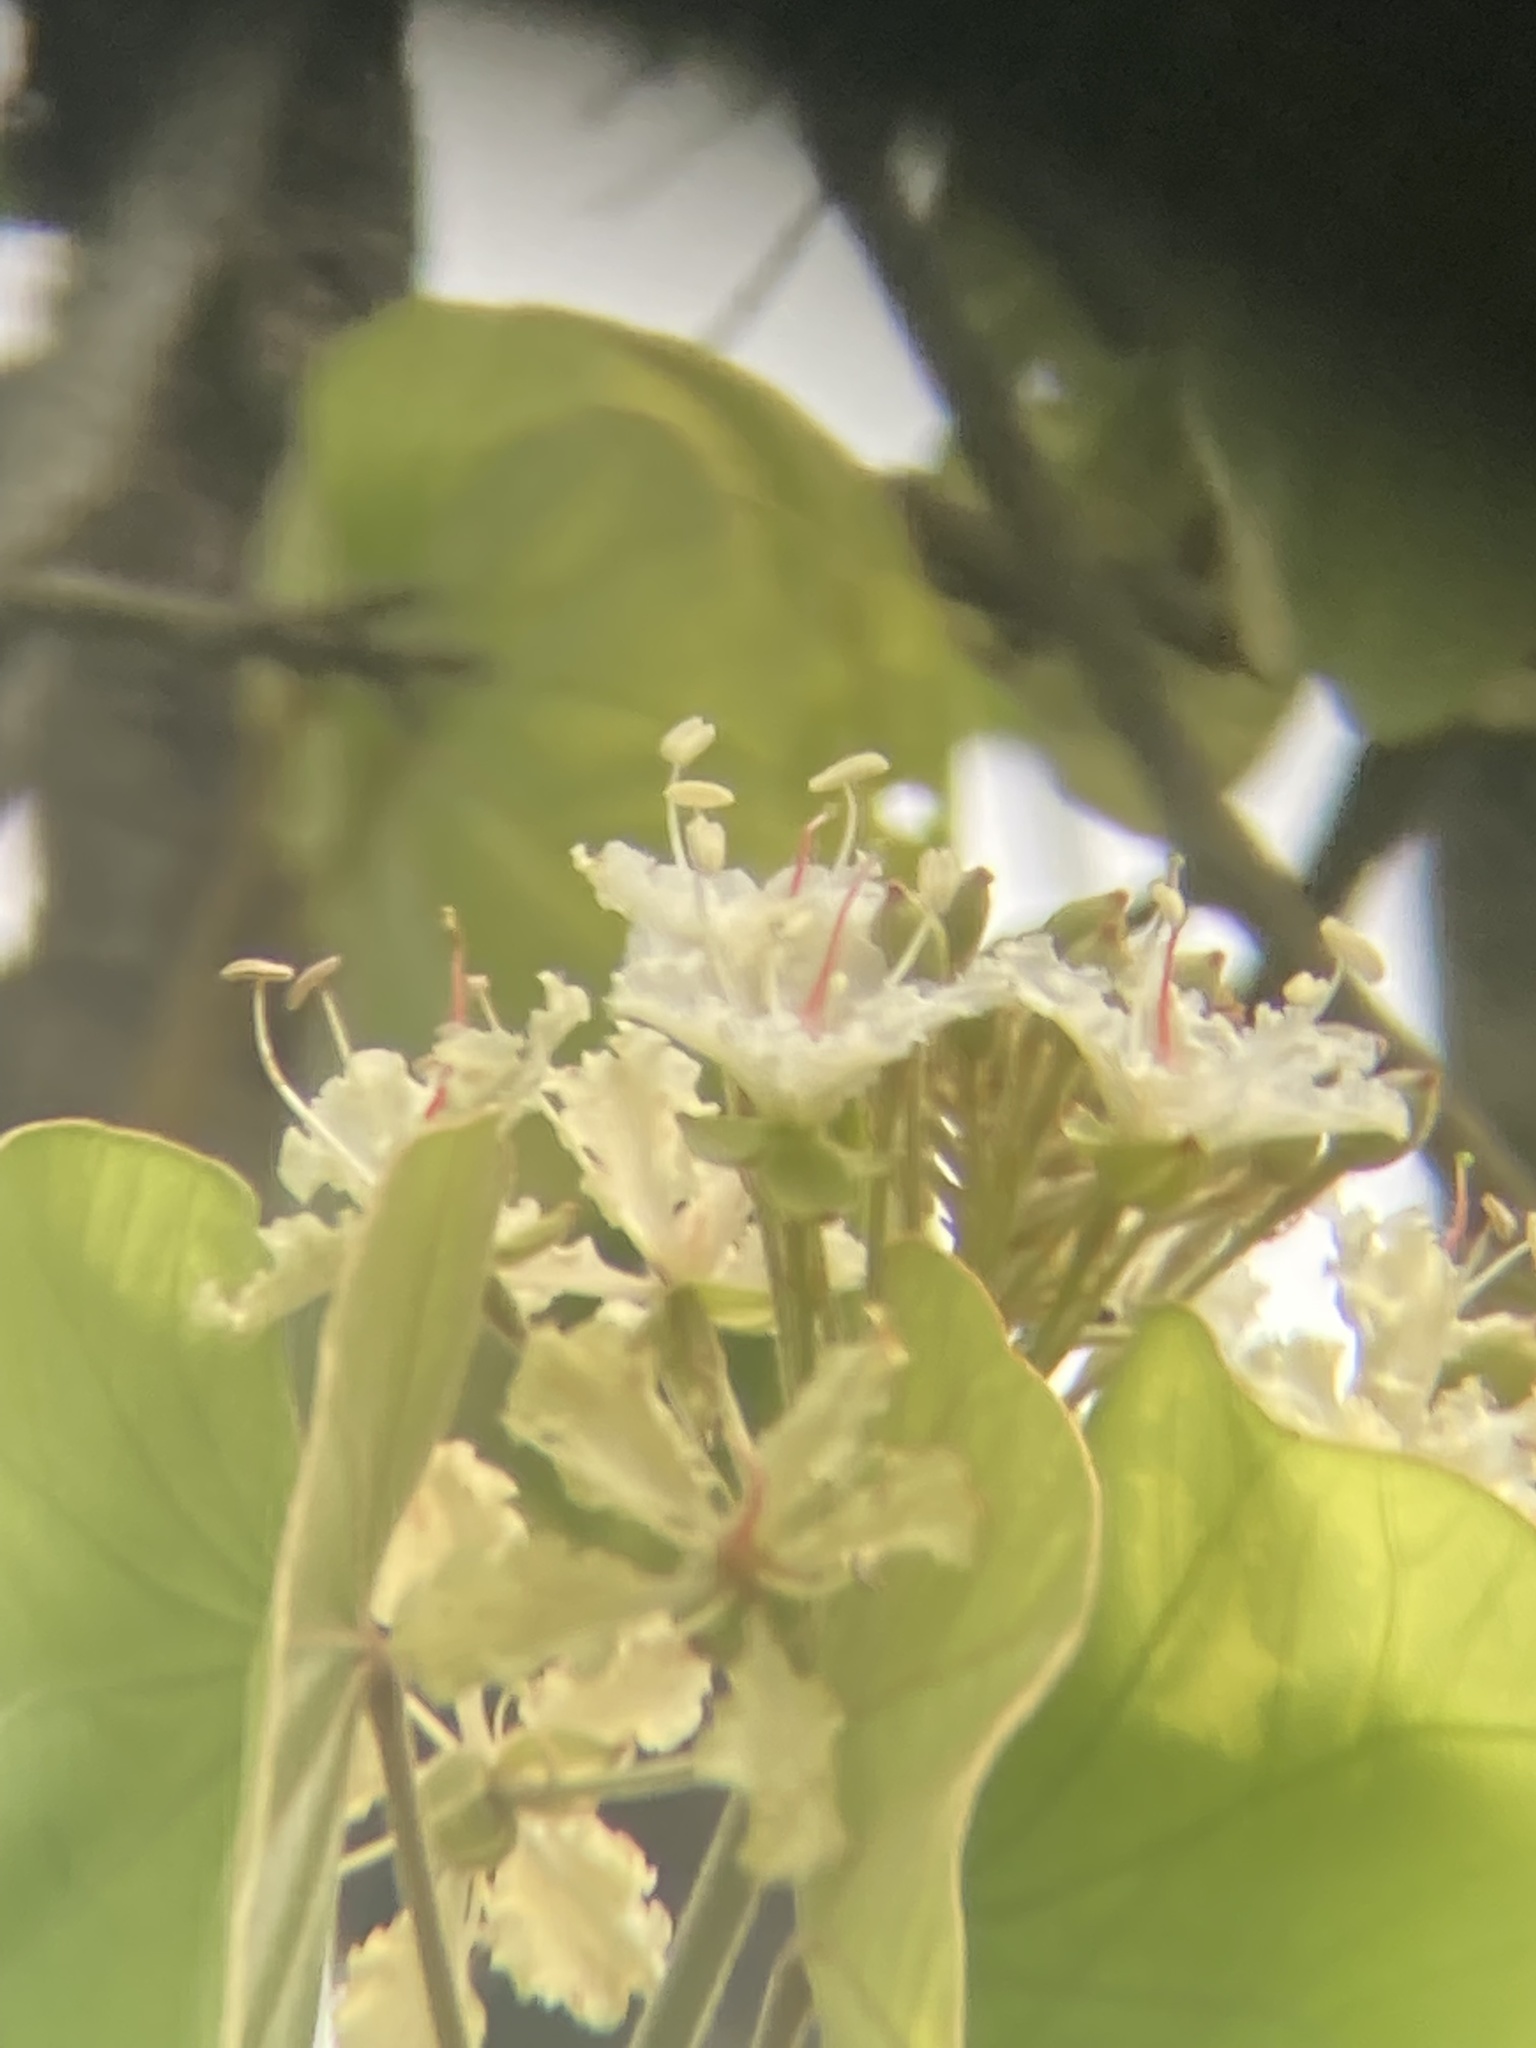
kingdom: Plantae
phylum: Tracheophyta
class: Magnoliopsida
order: Fabales
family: Fabaceae
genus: Phanera
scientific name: Phanera vahlii
